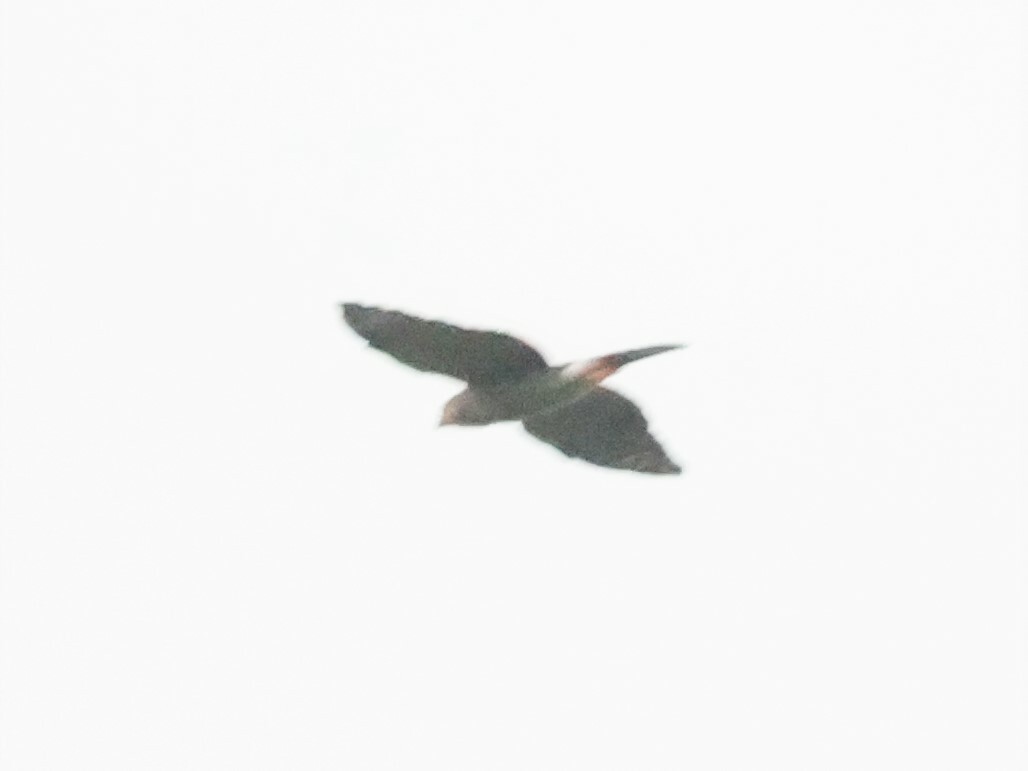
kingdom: Animalia
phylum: Chordata
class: Aves
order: Accipitriformes
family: Accipitridae
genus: Accipiter
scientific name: Accipiter tachiro
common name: African goshawk
